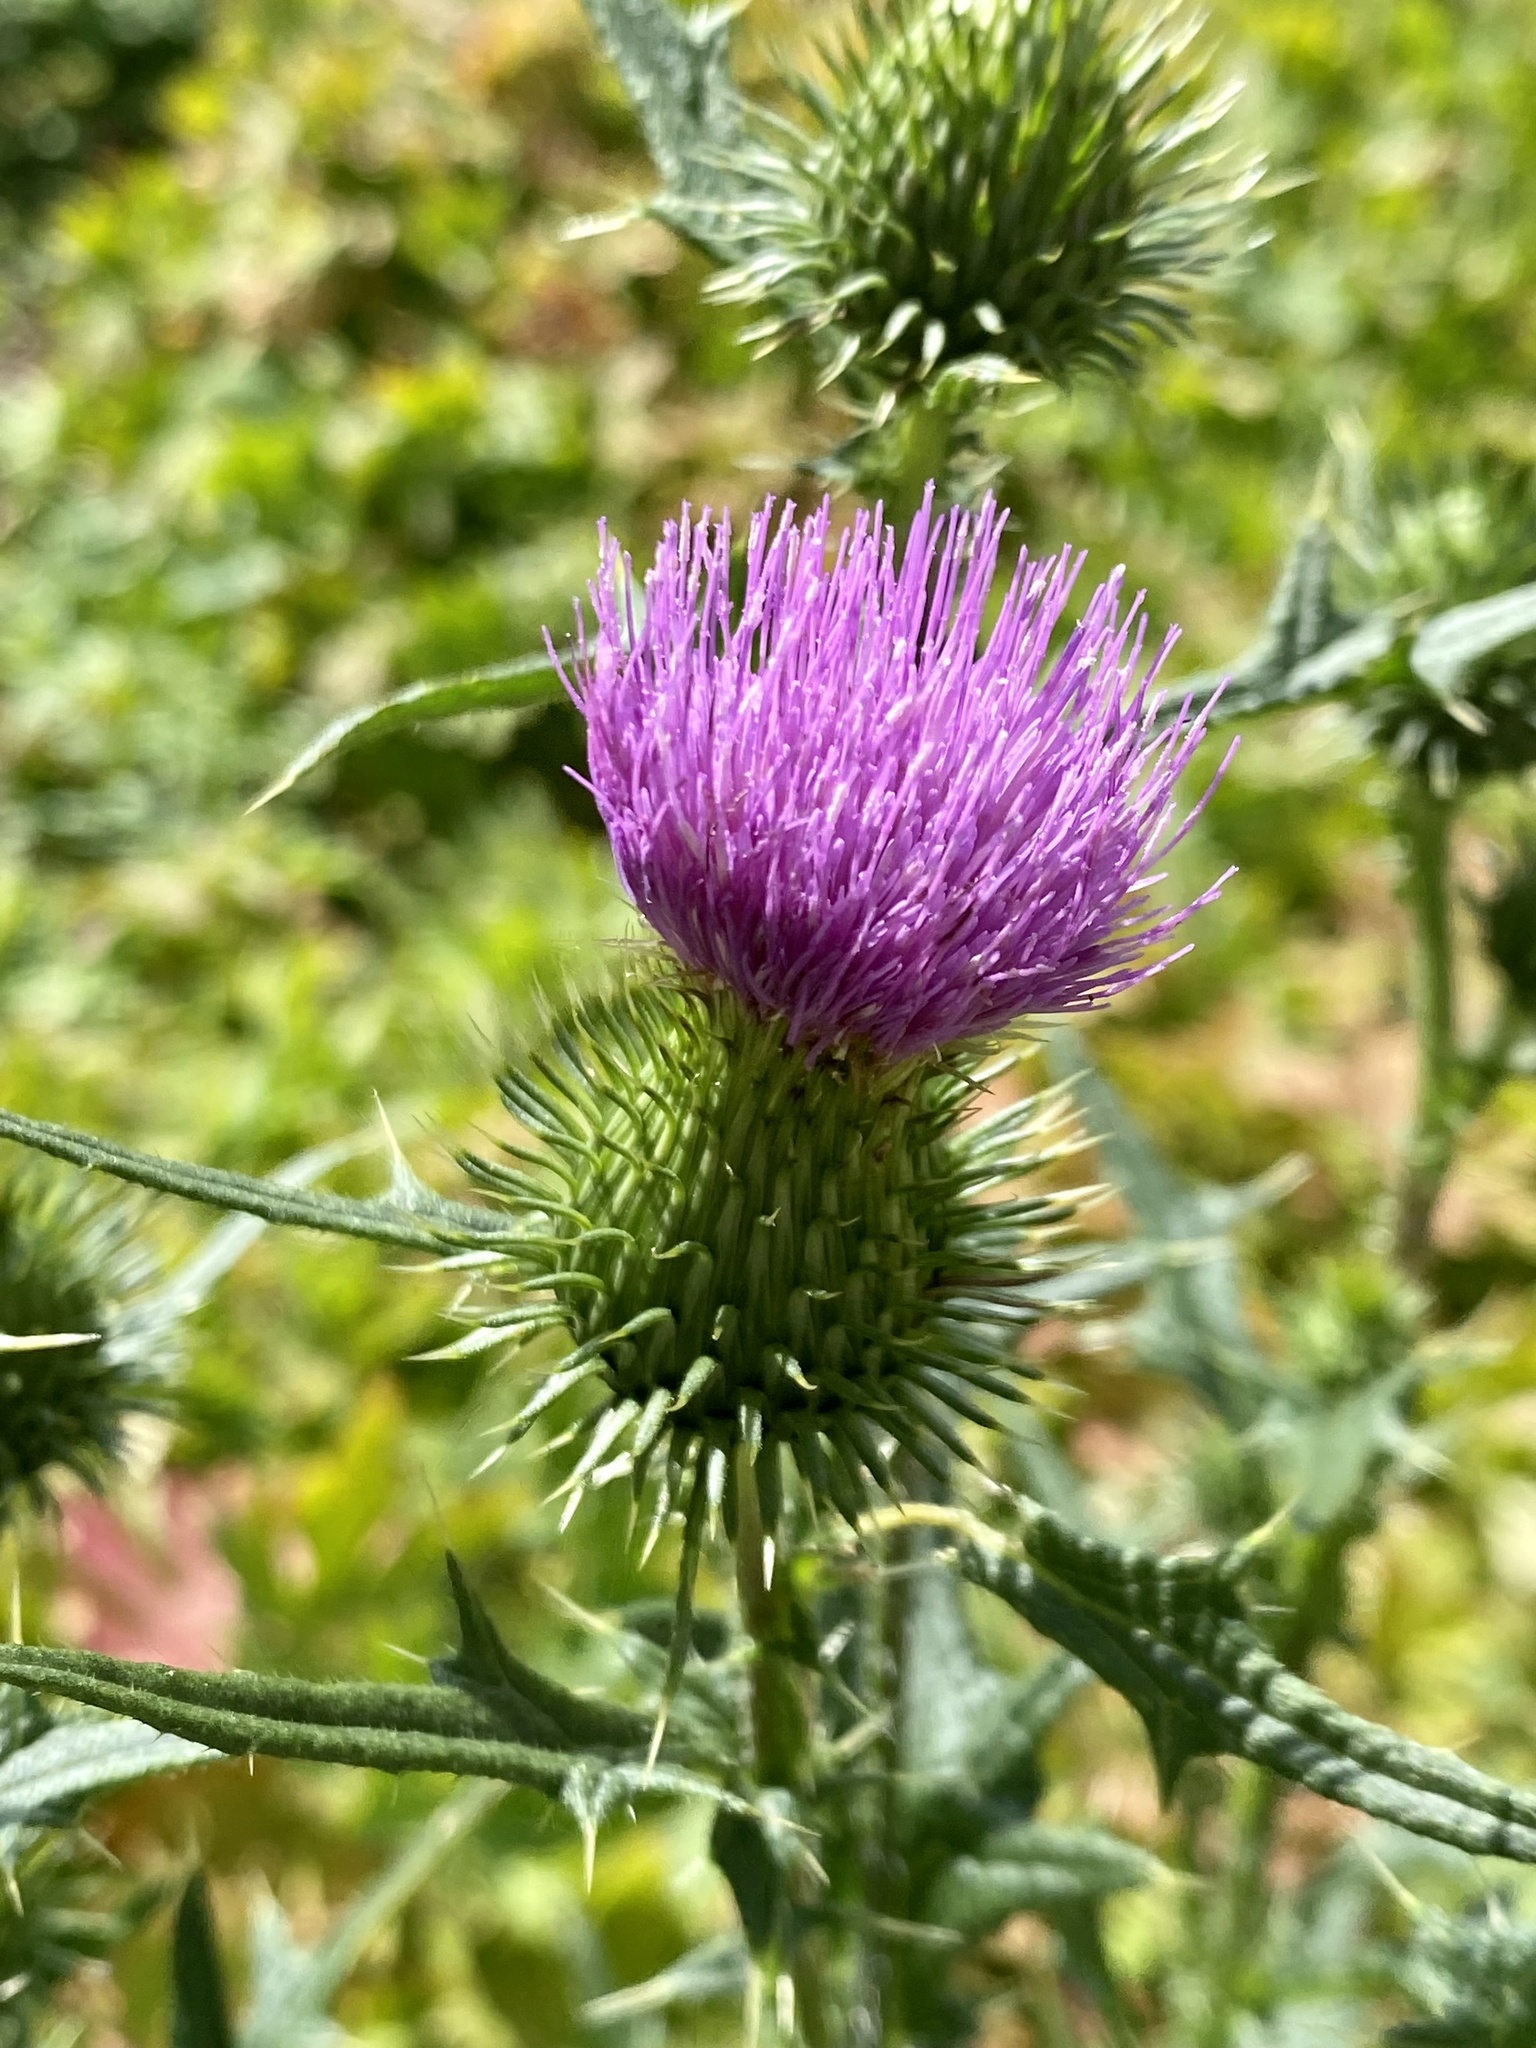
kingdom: Plantae
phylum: Tracheophyta
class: Magnoliopsida
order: Asterales
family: Asteraceae
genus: Cirsium
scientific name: Cirsium vulgare
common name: Bull thistle
